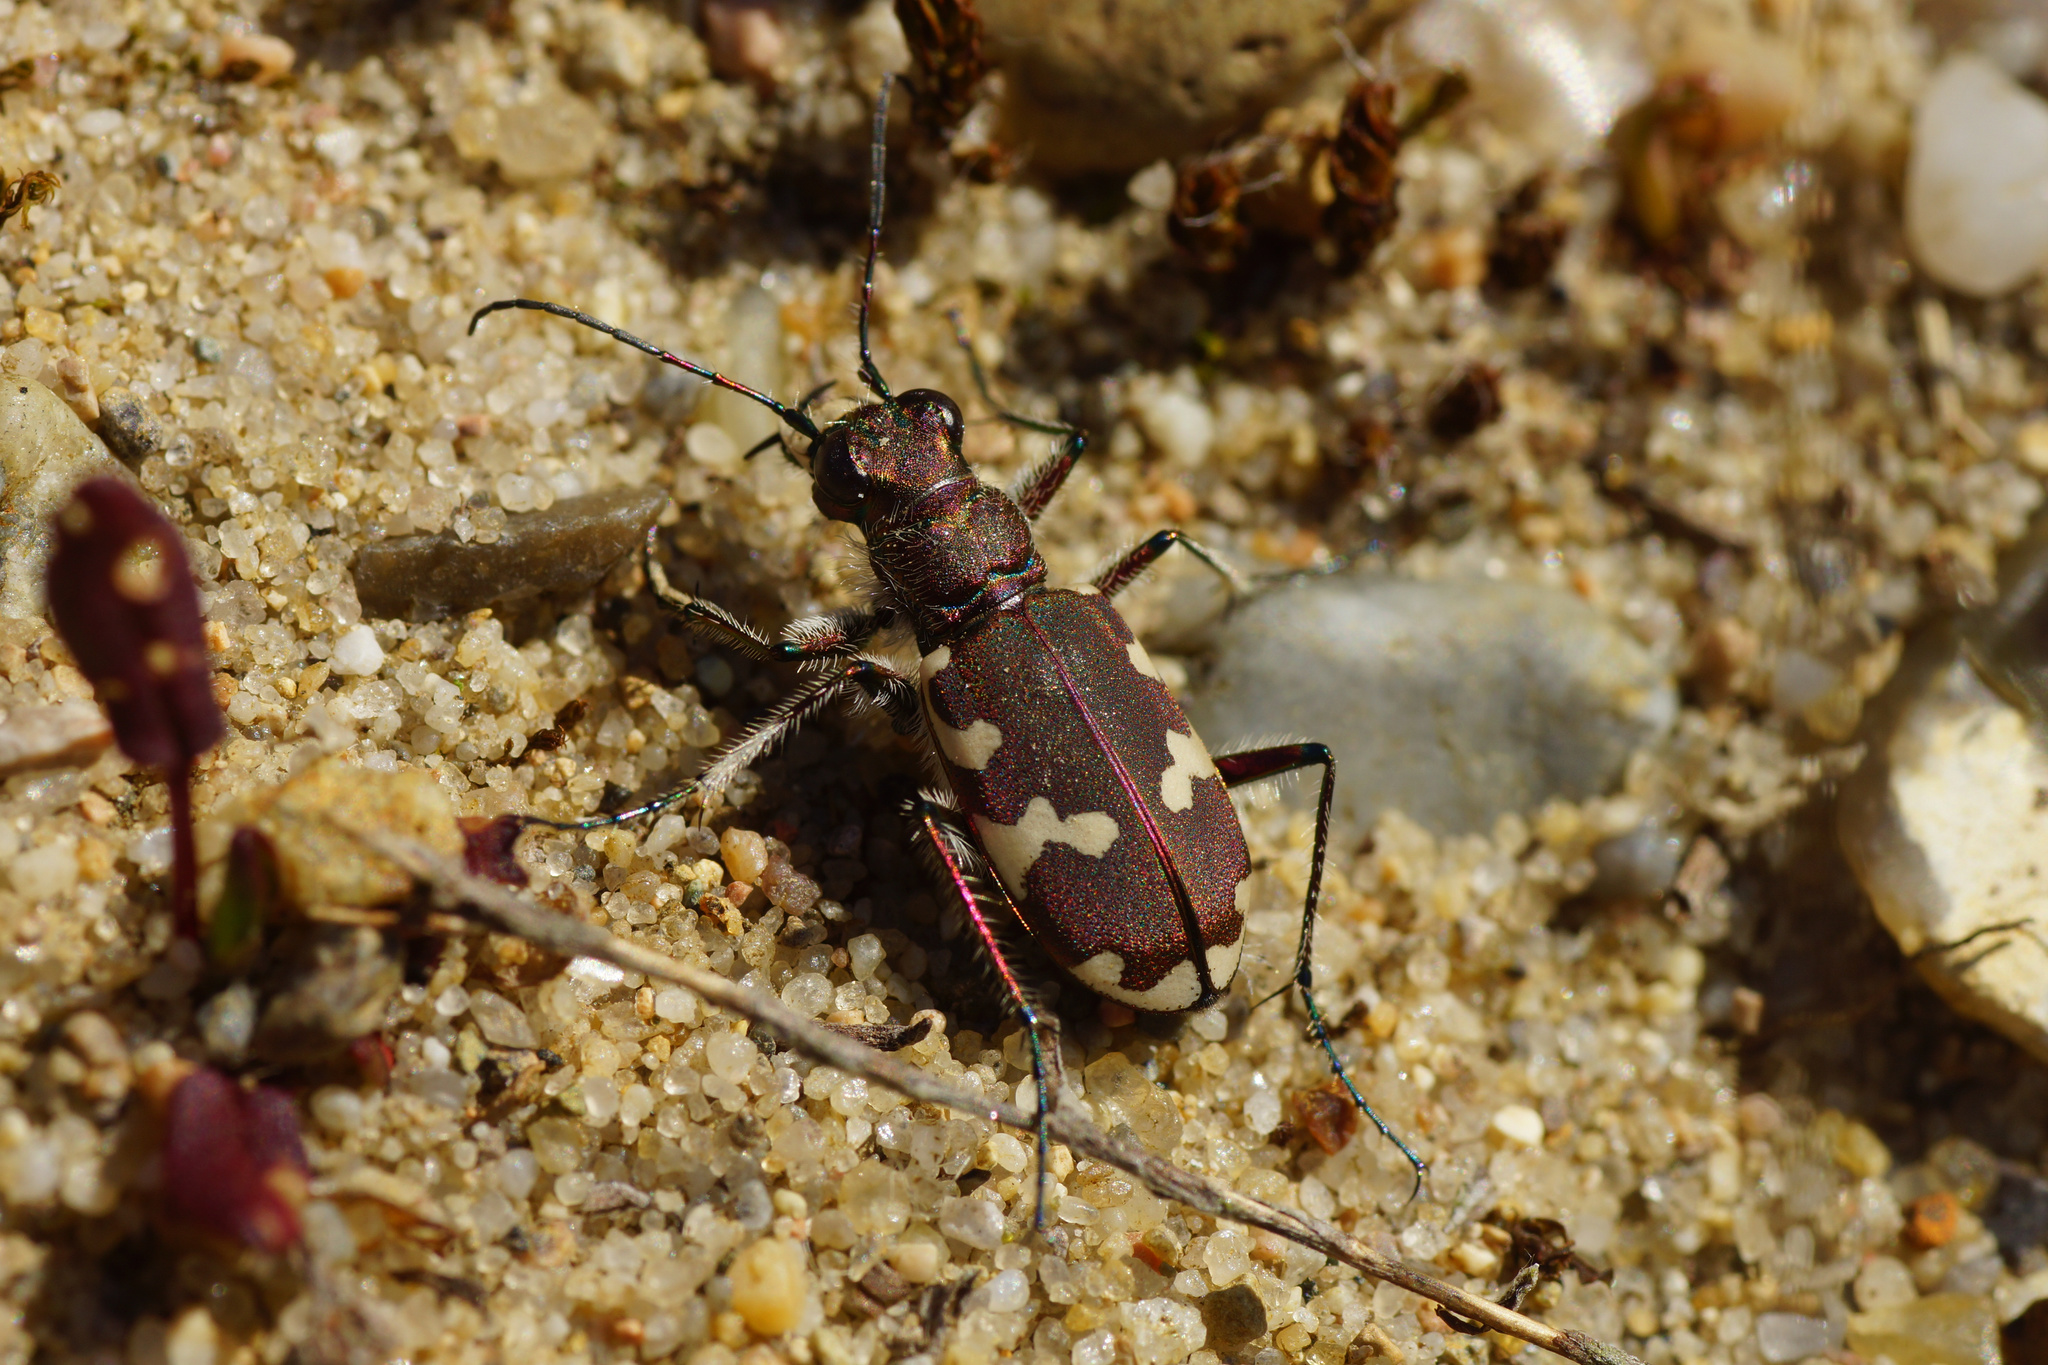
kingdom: Animalia
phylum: Arthropoda
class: Insecta
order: Coleoptera
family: Carabidae
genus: Cicindela
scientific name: Cicindela hybrida
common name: Northern dune tiger beetle
